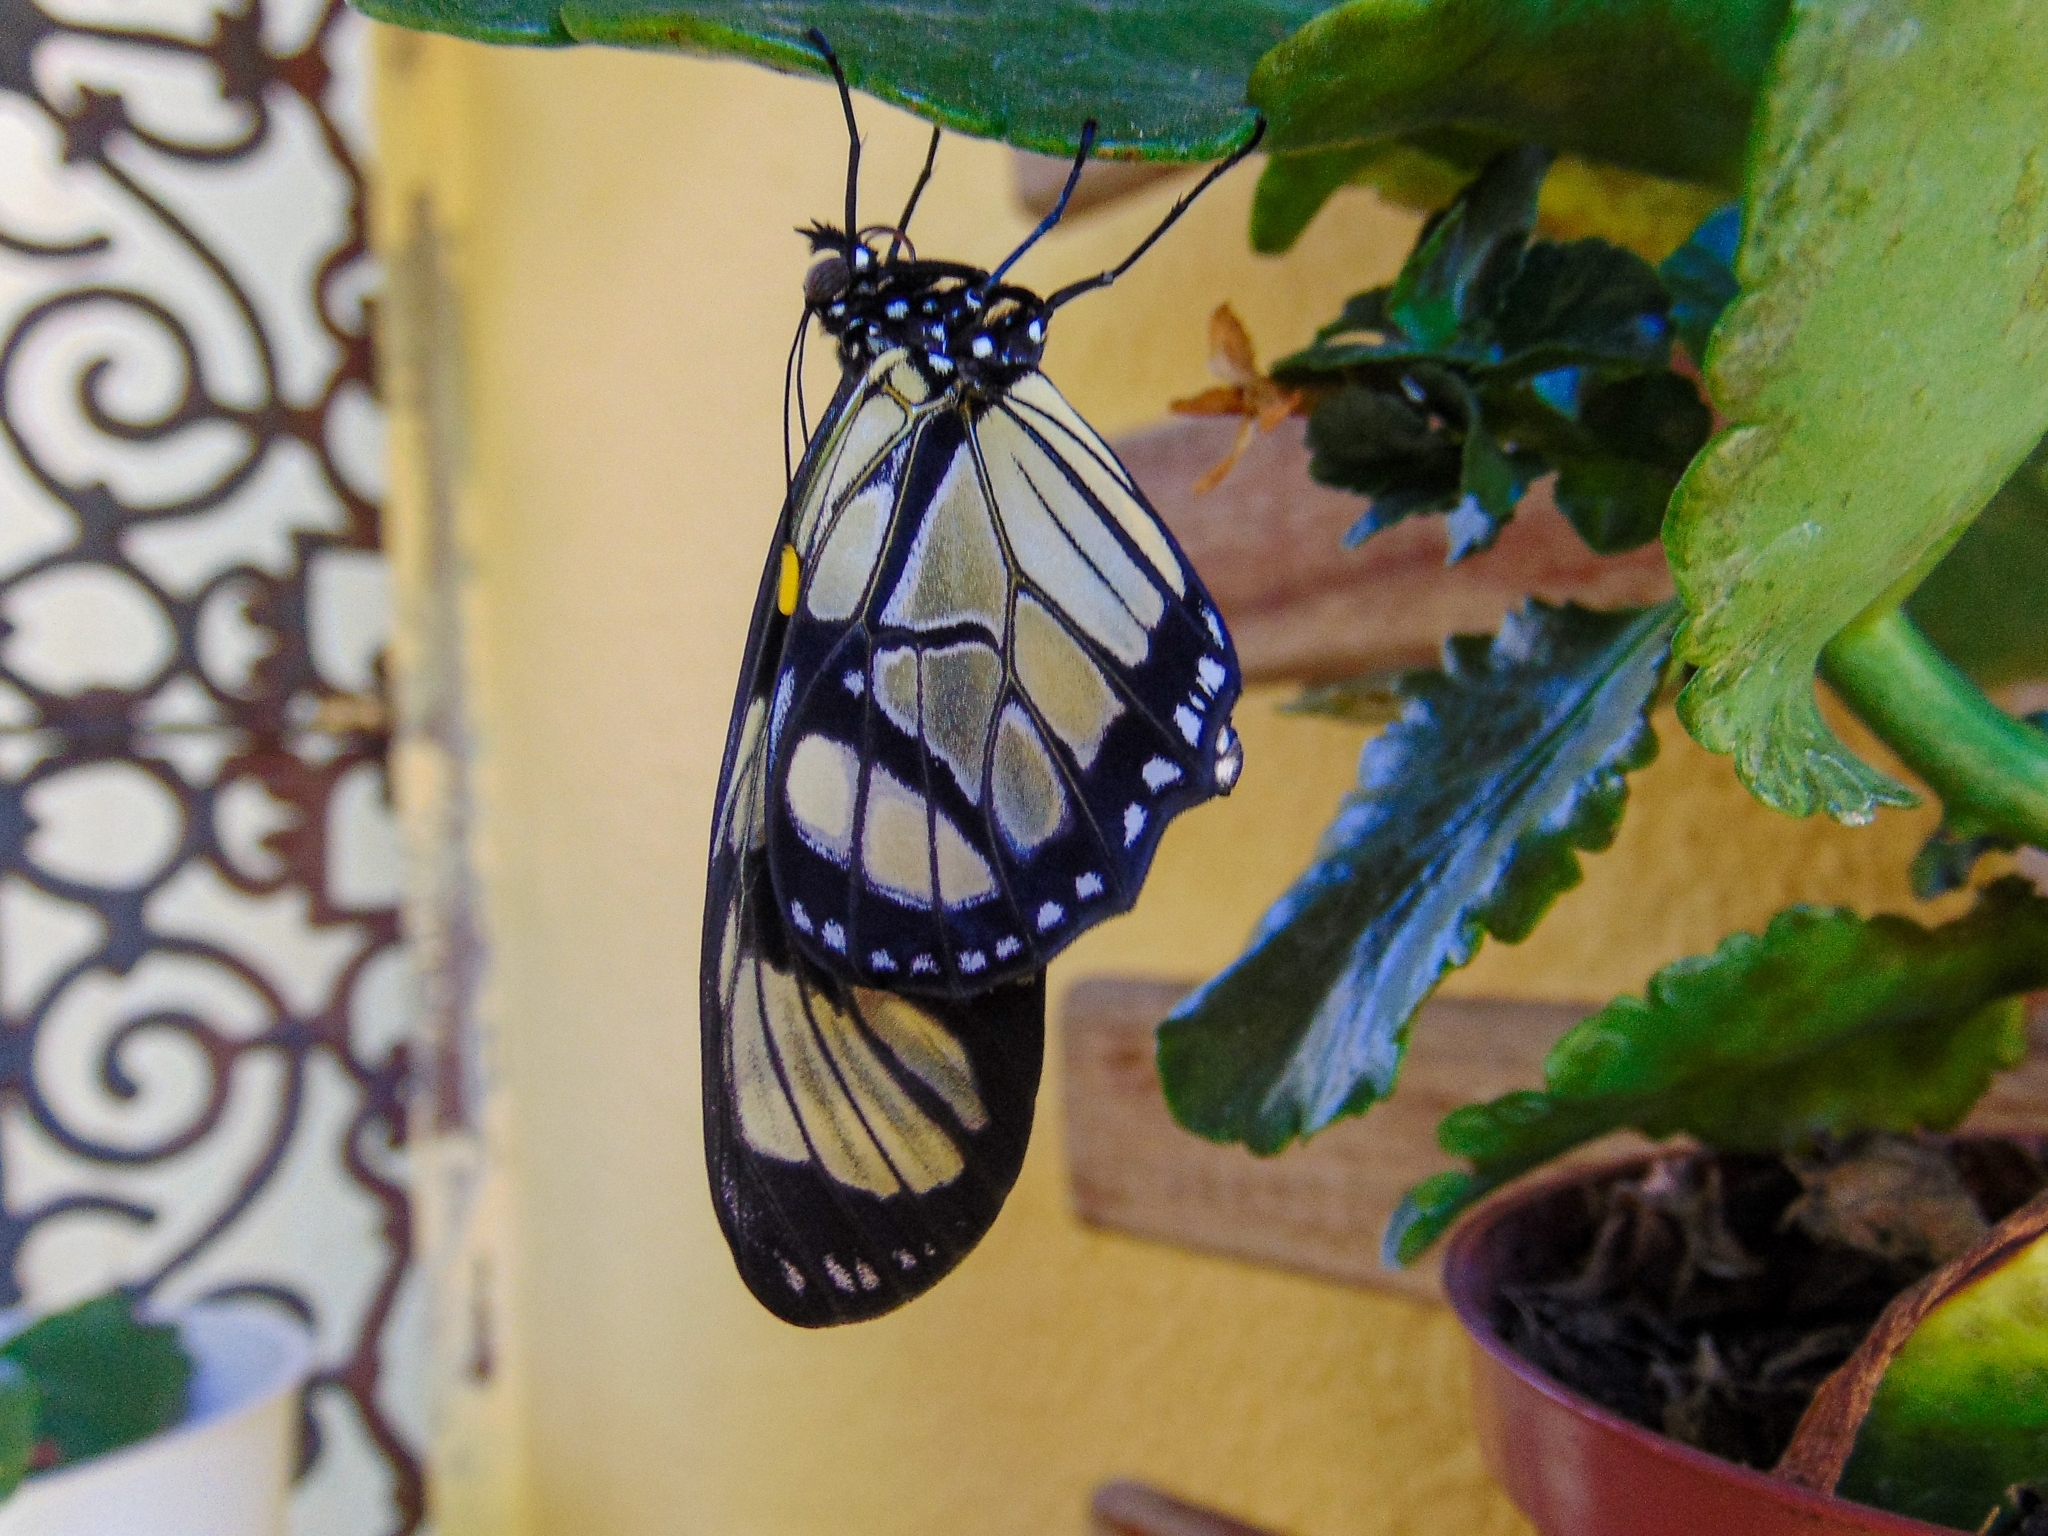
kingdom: Animalia
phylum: Arthropoda
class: Insecta
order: Lepidoptera
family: Nymphalidae
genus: Lycorea
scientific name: Lycorea ilione
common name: Clearwing mimic-queen
